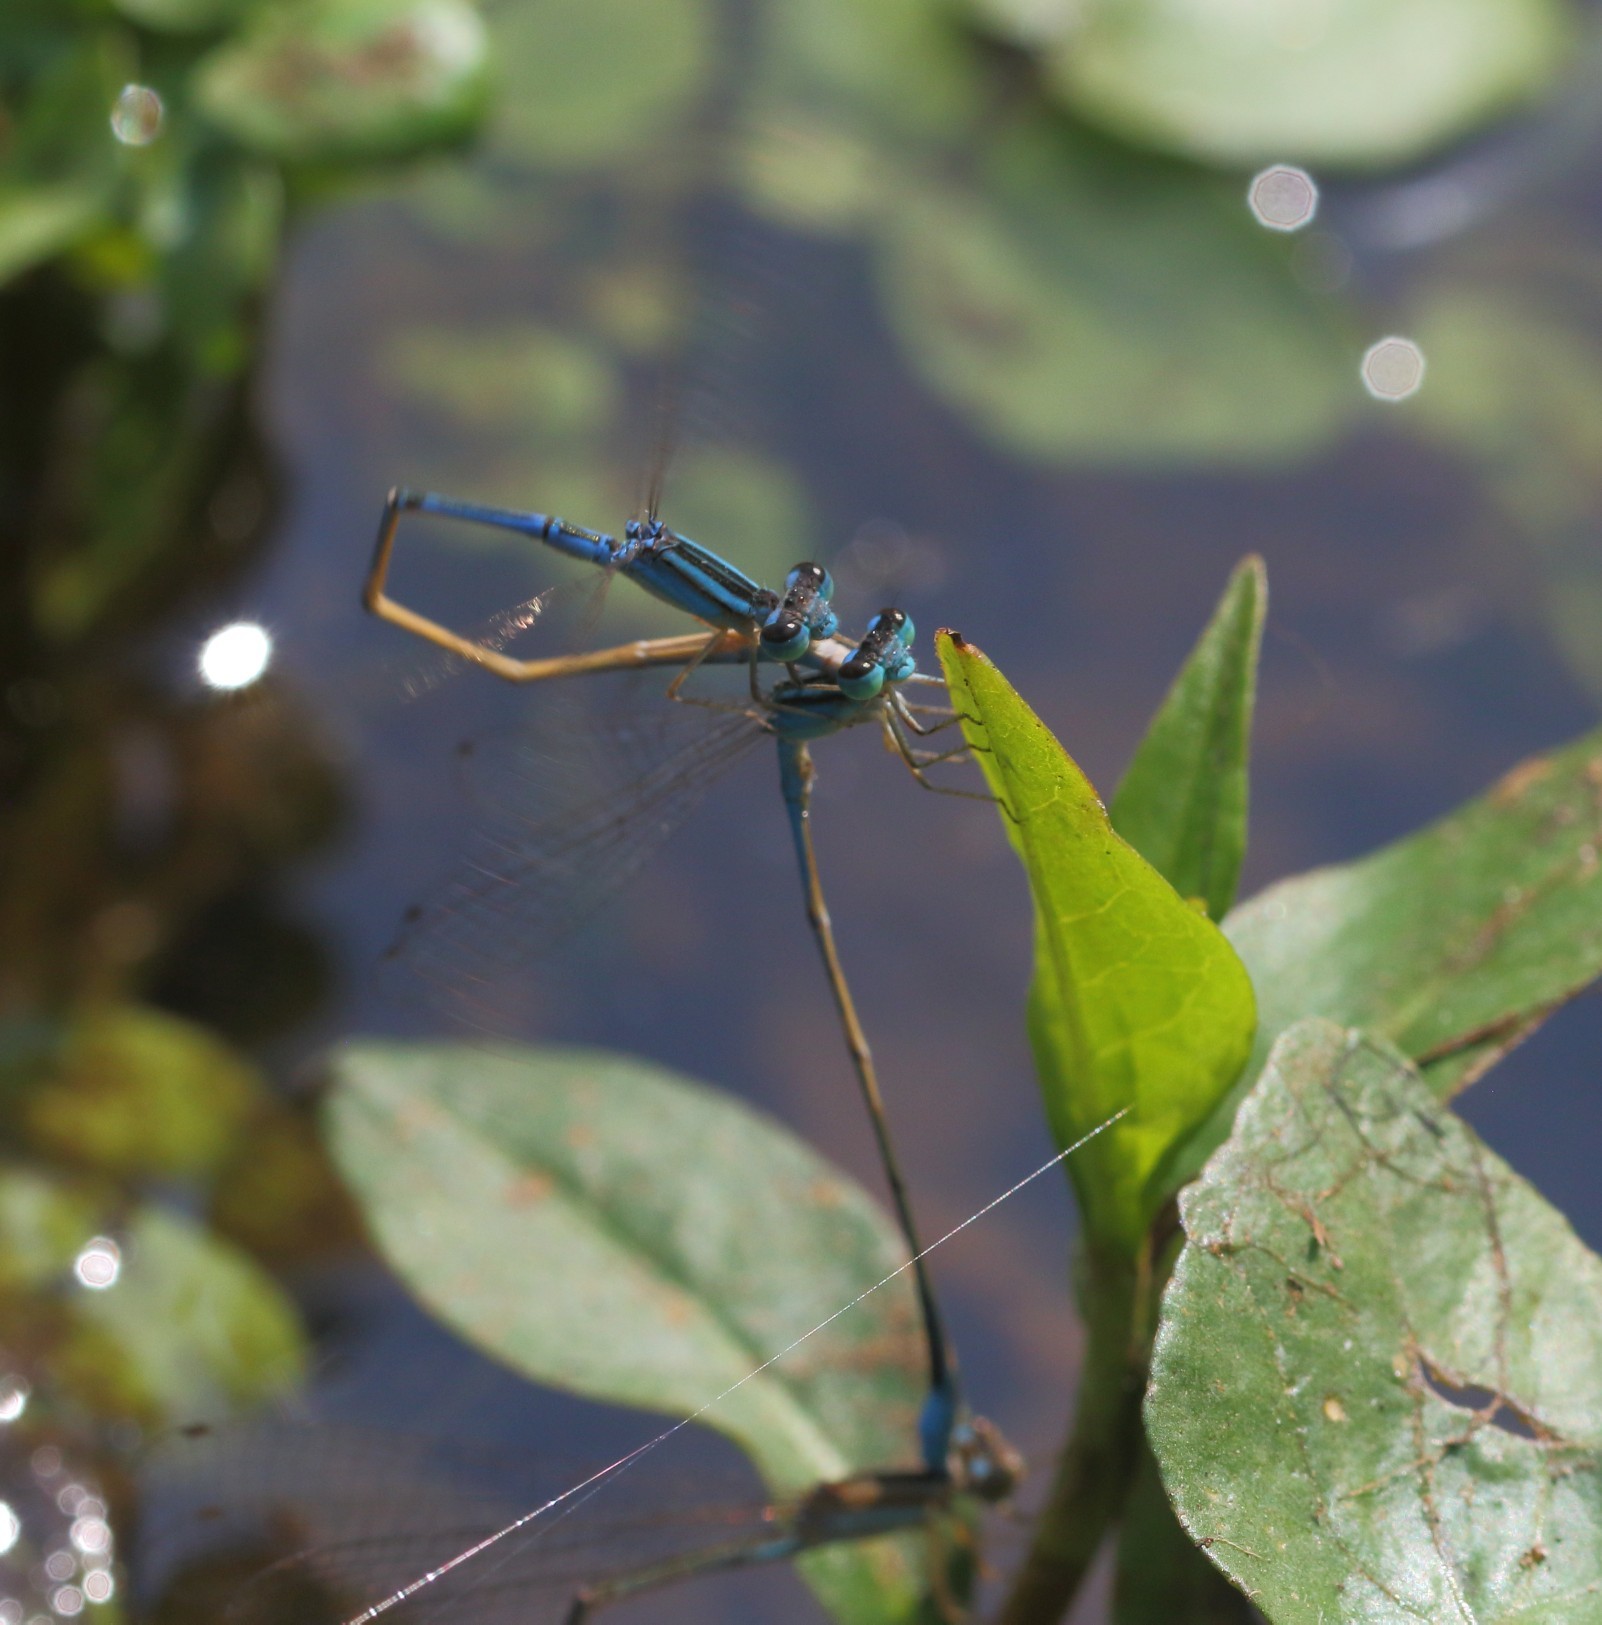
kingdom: Animalia
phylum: Arthropoda
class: Insecta
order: Odonata
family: Coenagrionidae
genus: Africallagma
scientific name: Africallagma fractum
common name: Slender bluet
